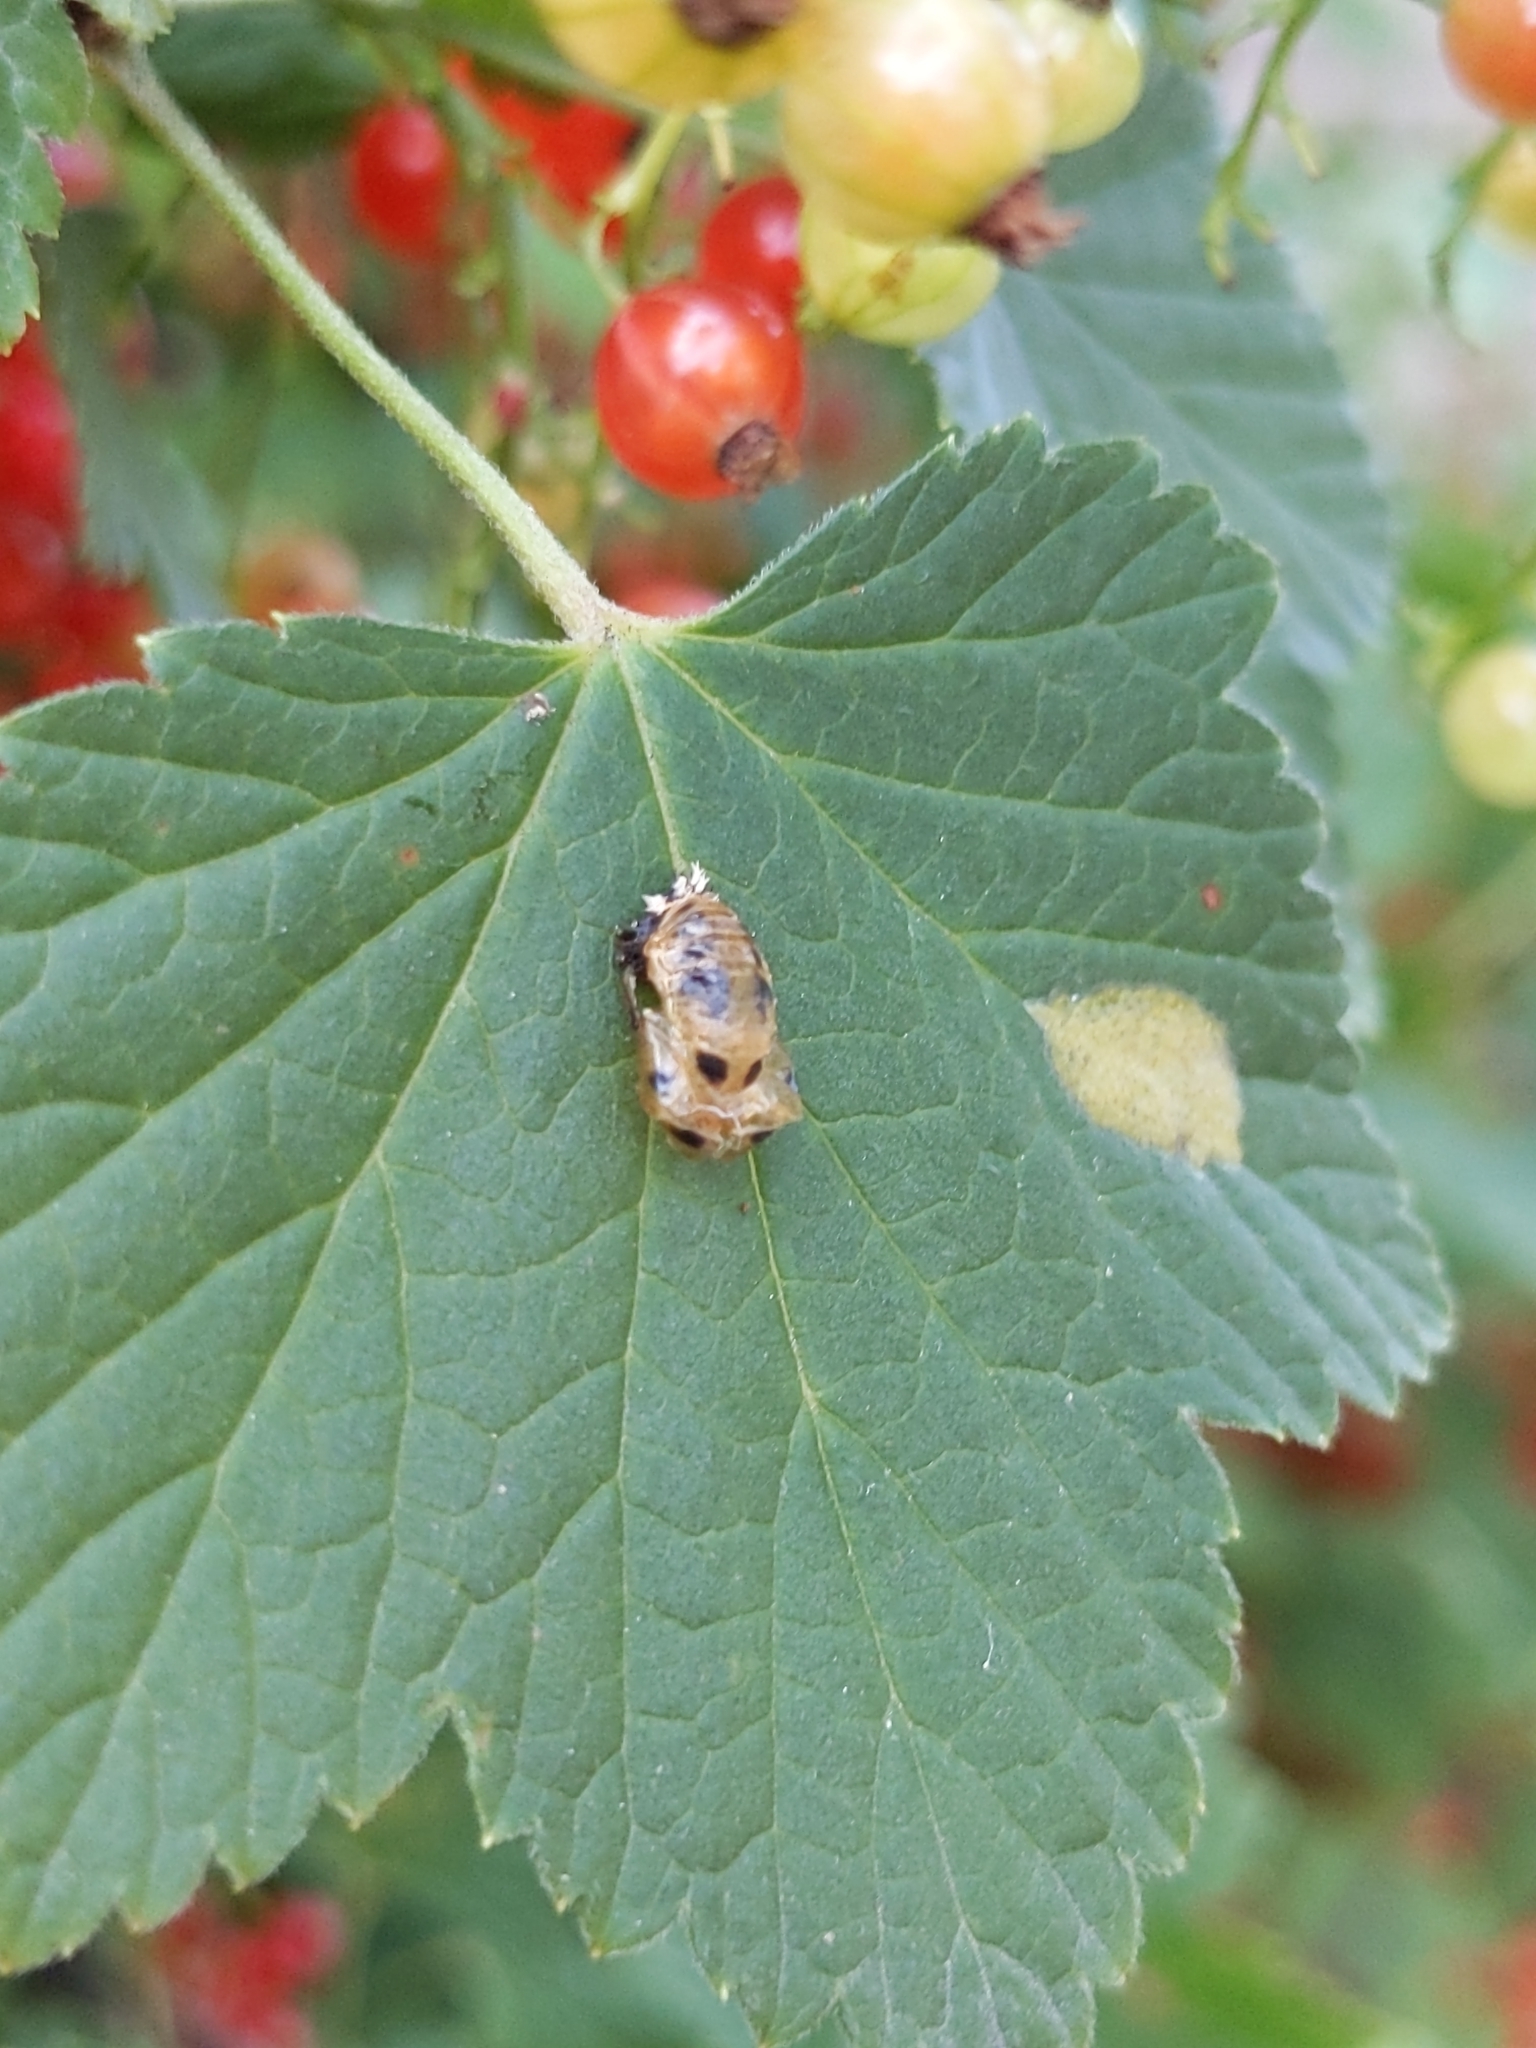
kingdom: Animalia
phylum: Arthropoda
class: Insecta
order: Coleoptera
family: Coccinellidae
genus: Harmonia
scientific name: Harmonia axyridis
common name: Harlequin ladybird
